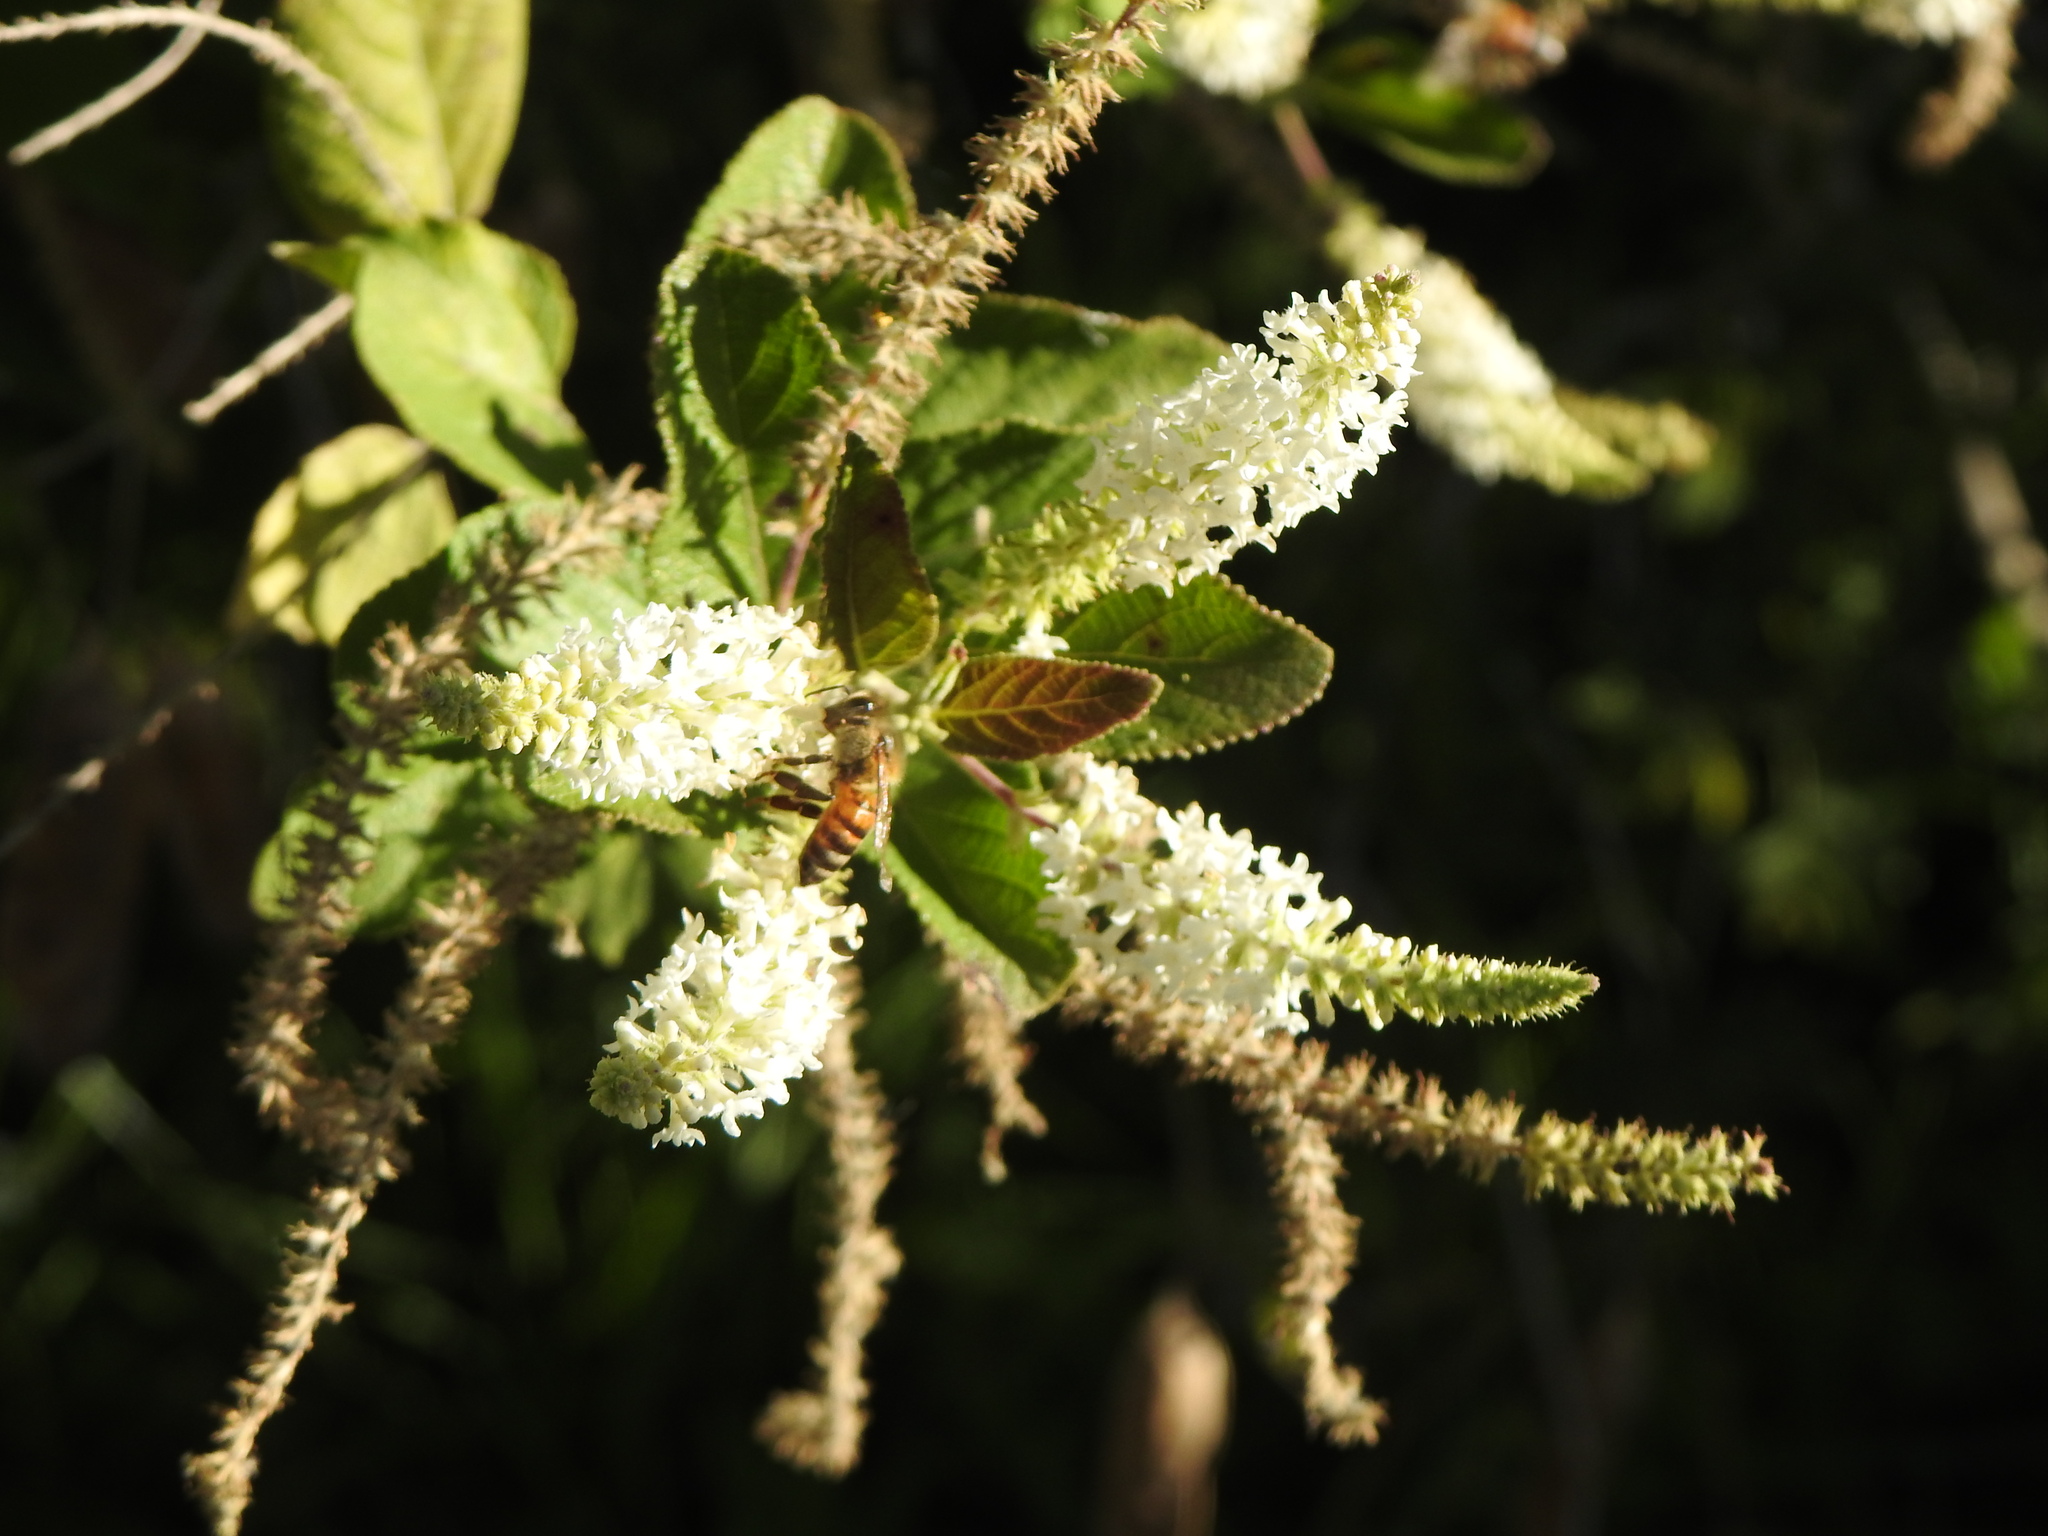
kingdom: Plantae
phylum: Tracheophyta
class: Magnoliopsida
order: Lamiales
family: Verbenaceae
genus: Aloysia
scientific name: Aloysia virgata
